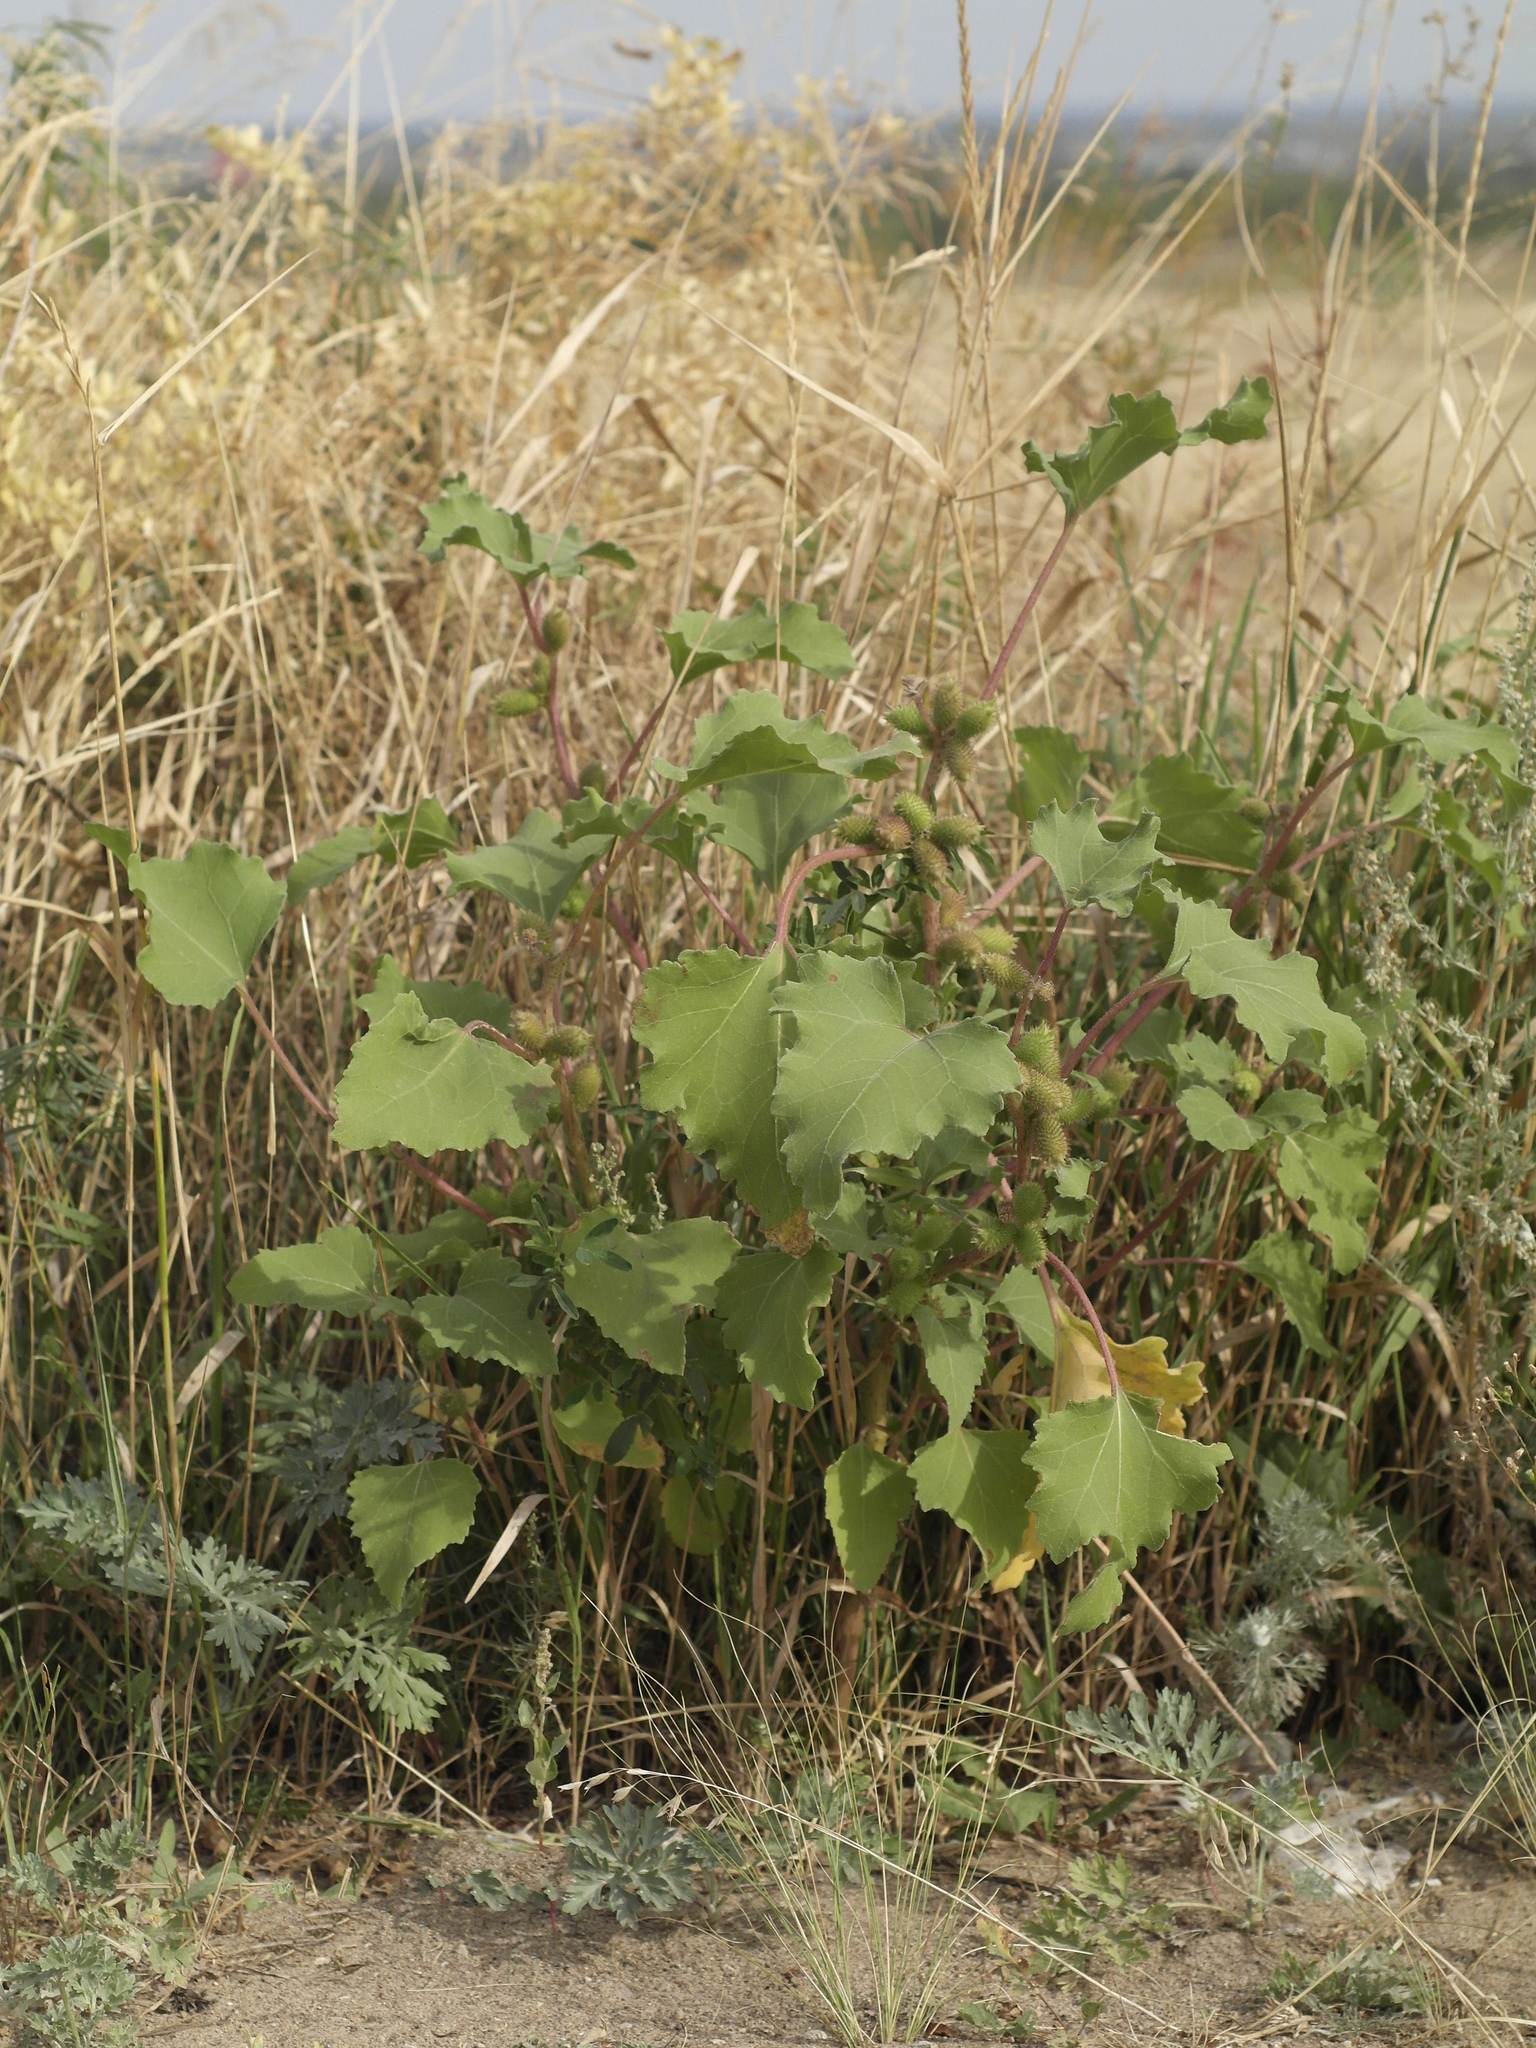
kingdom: Plantae
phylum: Tracheophyta
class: Magnoliopsida
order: Asterales
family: Asteraceae
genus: Xanthium
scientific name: Xanthium orientale
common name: Californian burr
